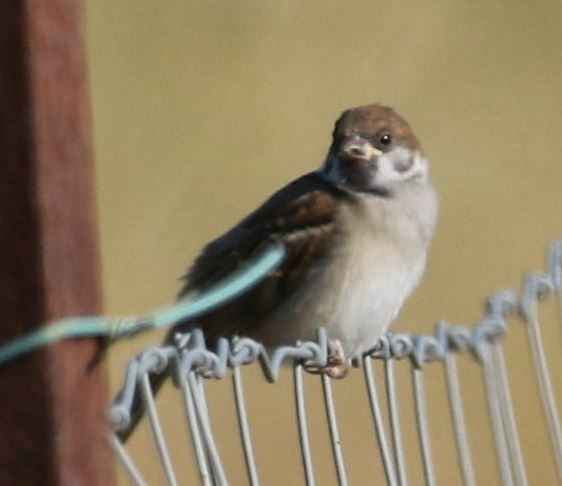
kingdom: Animalia
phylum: Chordata
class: Aves
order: Passeriformes
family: Passeridae
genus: Passer
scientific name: Passer montanus
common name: Eurasian tree sparrow
